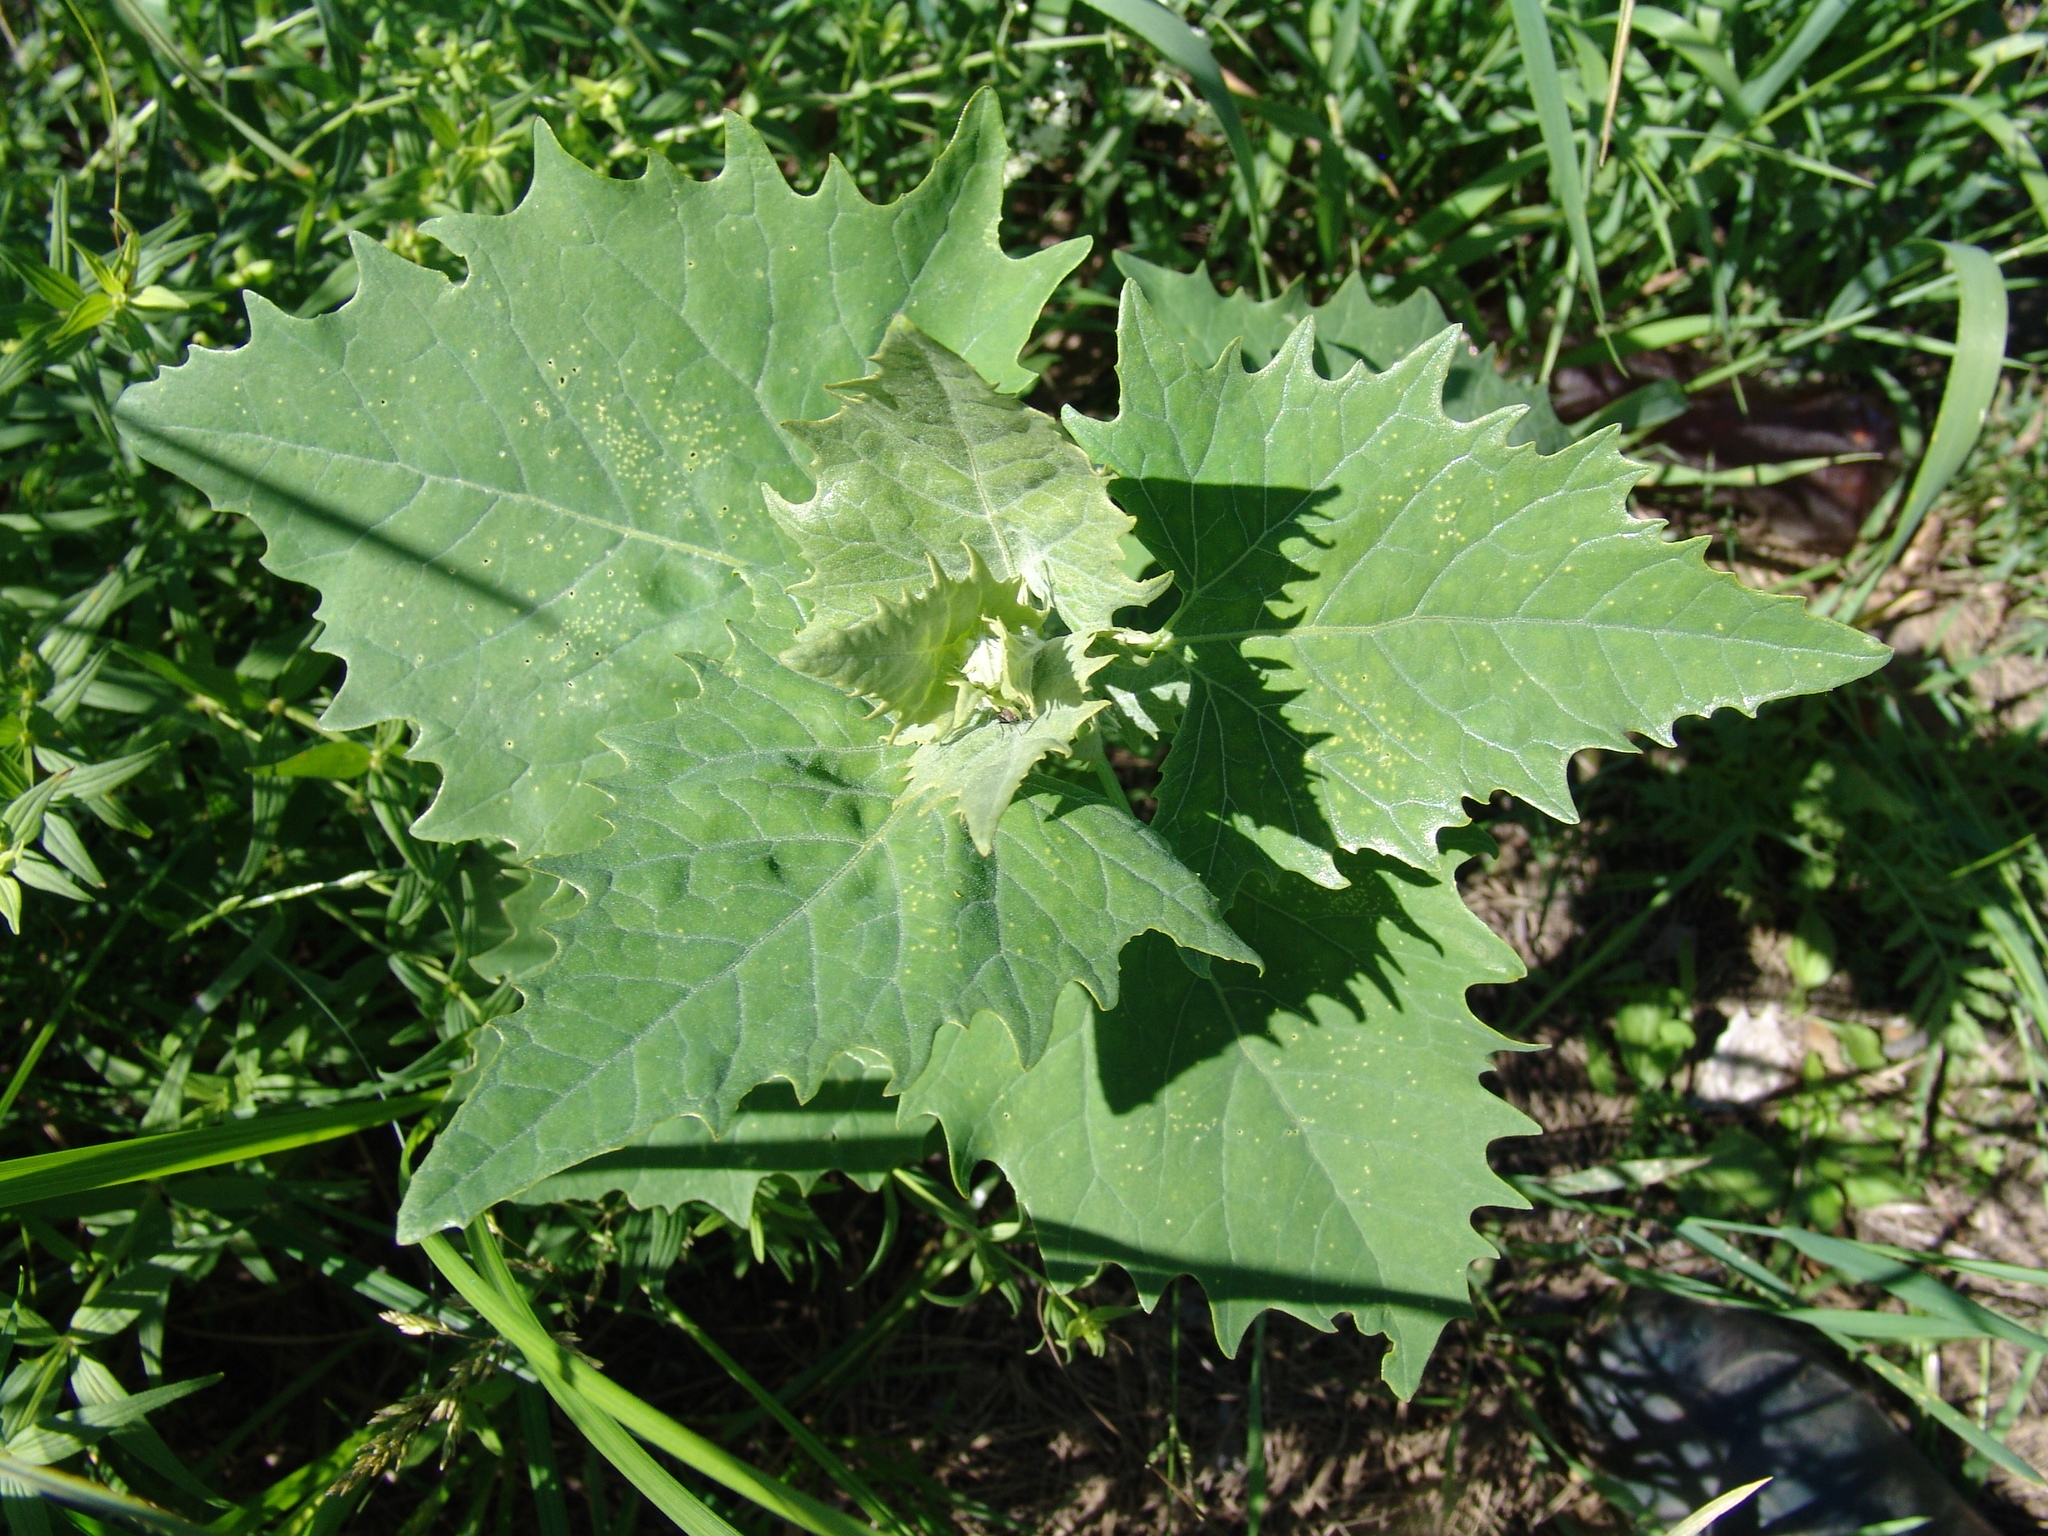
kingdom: Plantae
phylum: Tracheophyta
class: Magnoliopsida
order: Caryophyllales
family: Amaranthaceae
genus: Atriplex
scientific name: Atriplex sagittata
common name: Purple orache
